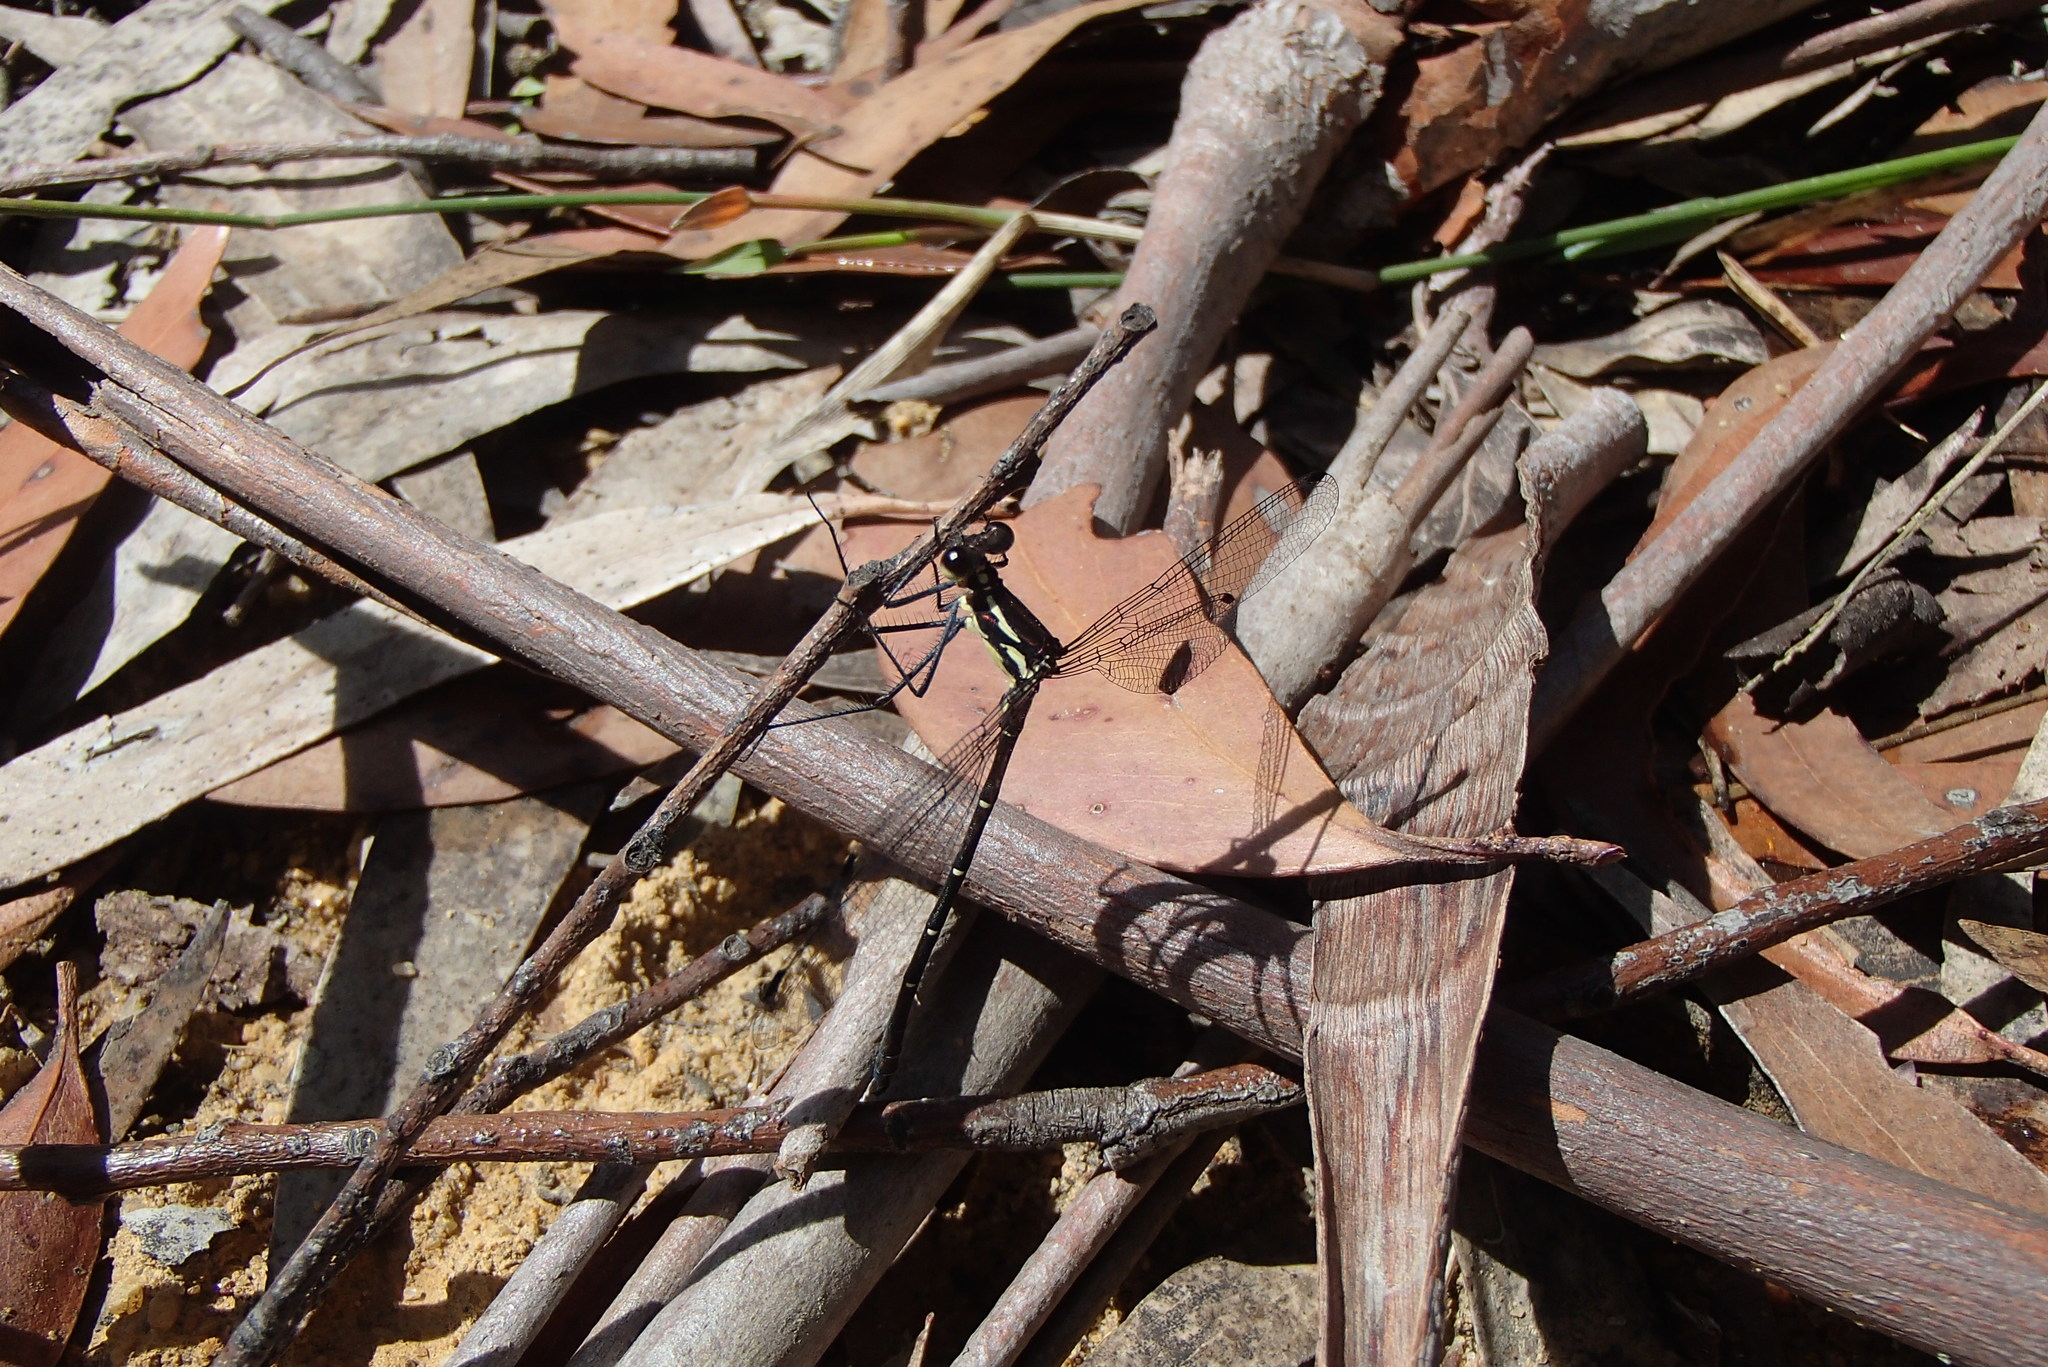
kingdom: Animalia
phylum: Arthropoda
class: Insecta
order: Odonata
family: Argiolestidae
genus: Austroargiolestes
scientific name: Austroargiolestes isabellae
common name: Sydney flatwing
